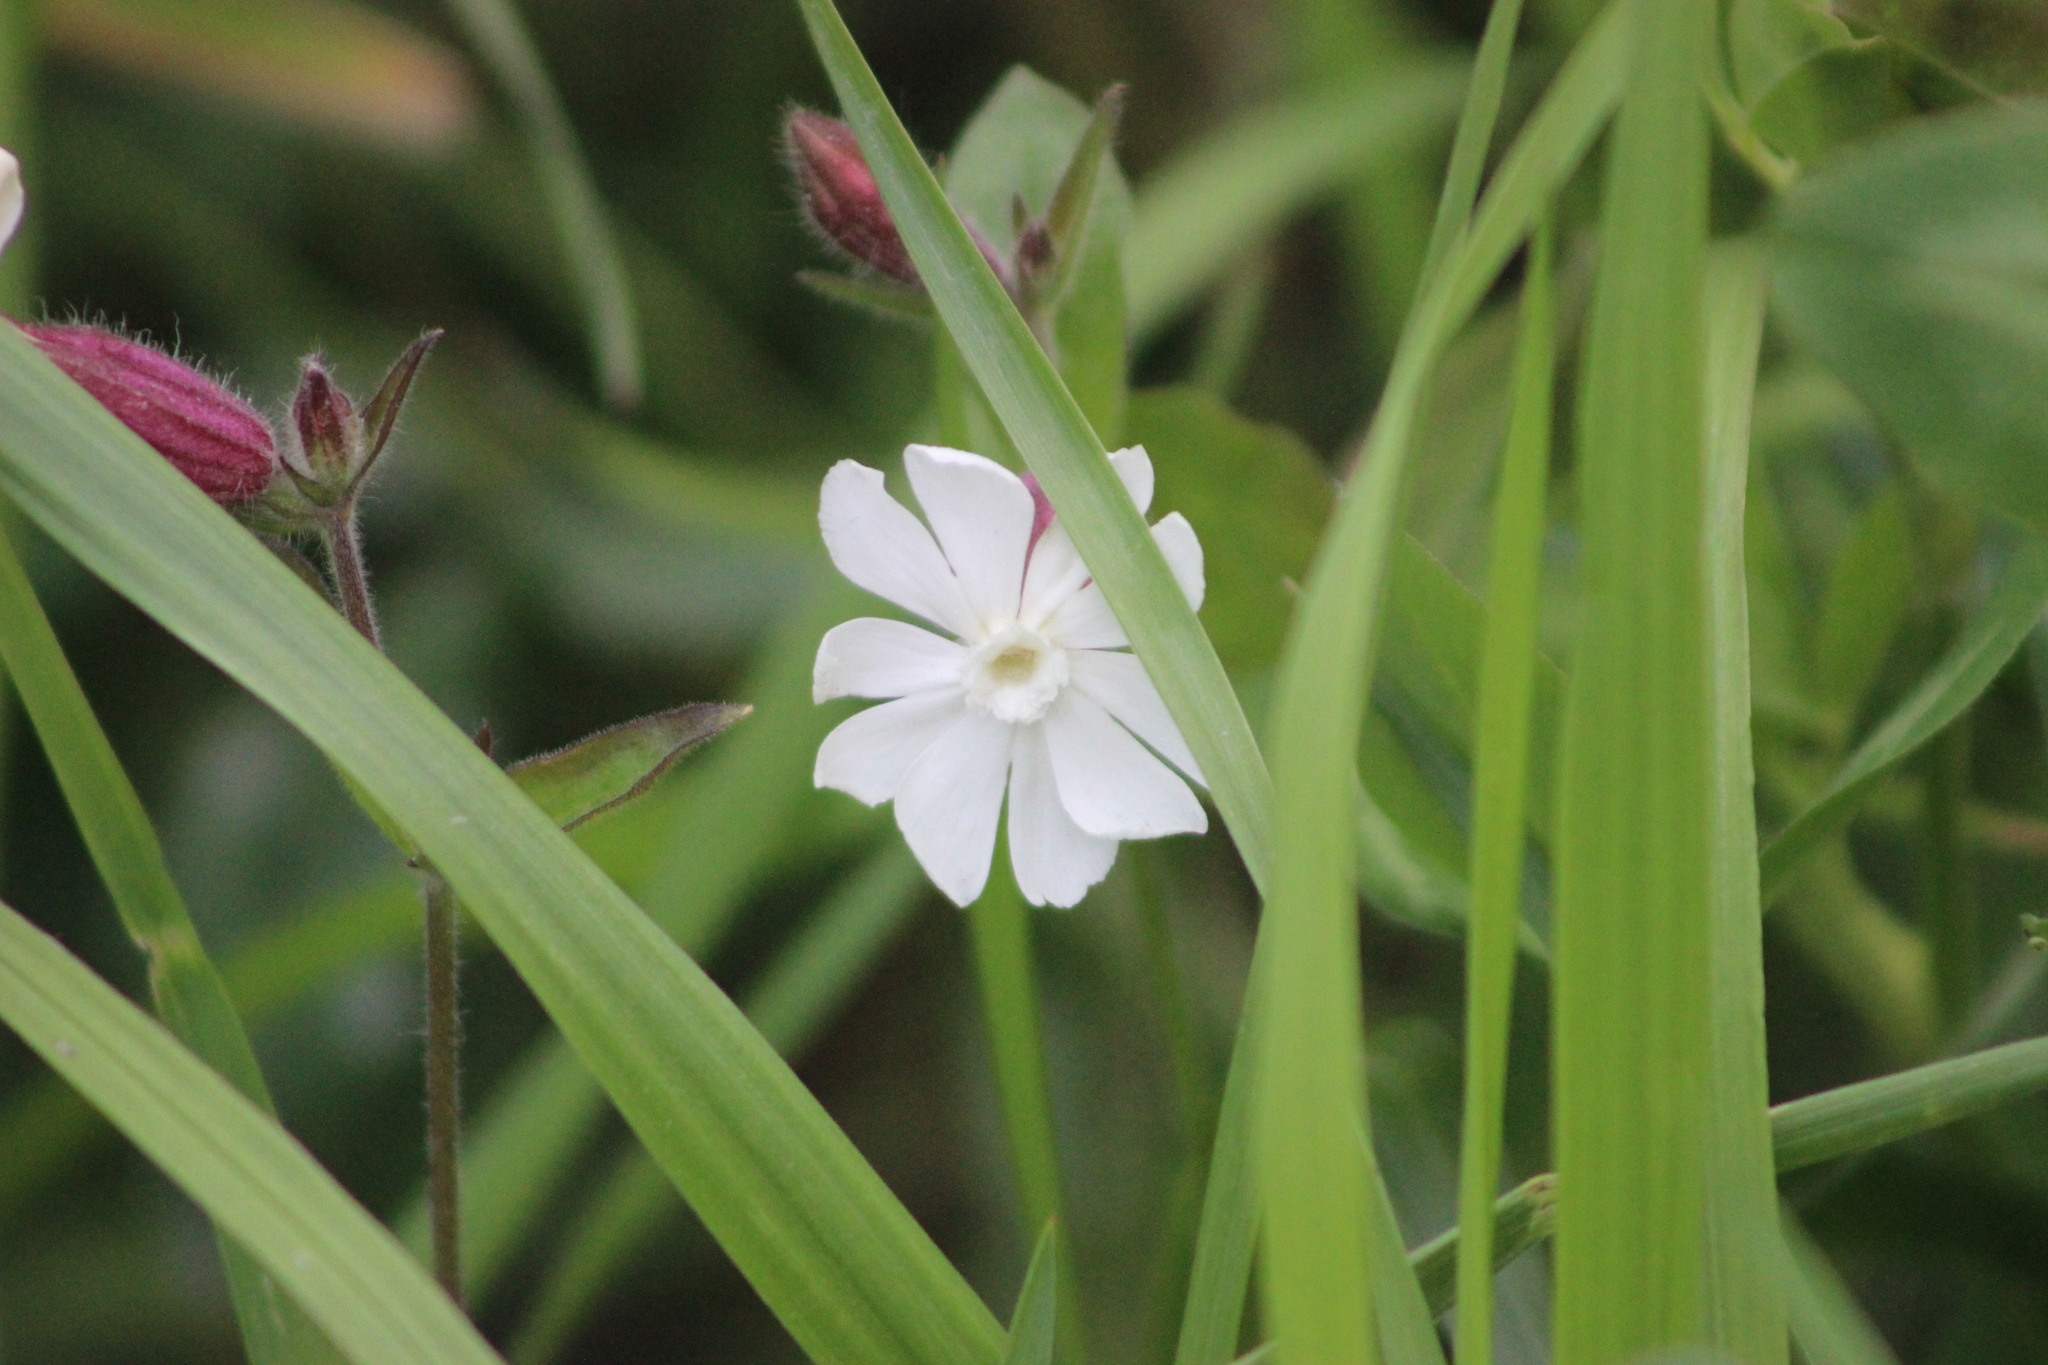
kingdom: Plantae
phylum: Tracheophyta
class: Magnoliopsida
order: Caryophyllales
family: Caryophyllaceae
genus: Silene
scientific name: Silene latifolia
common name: White campion
